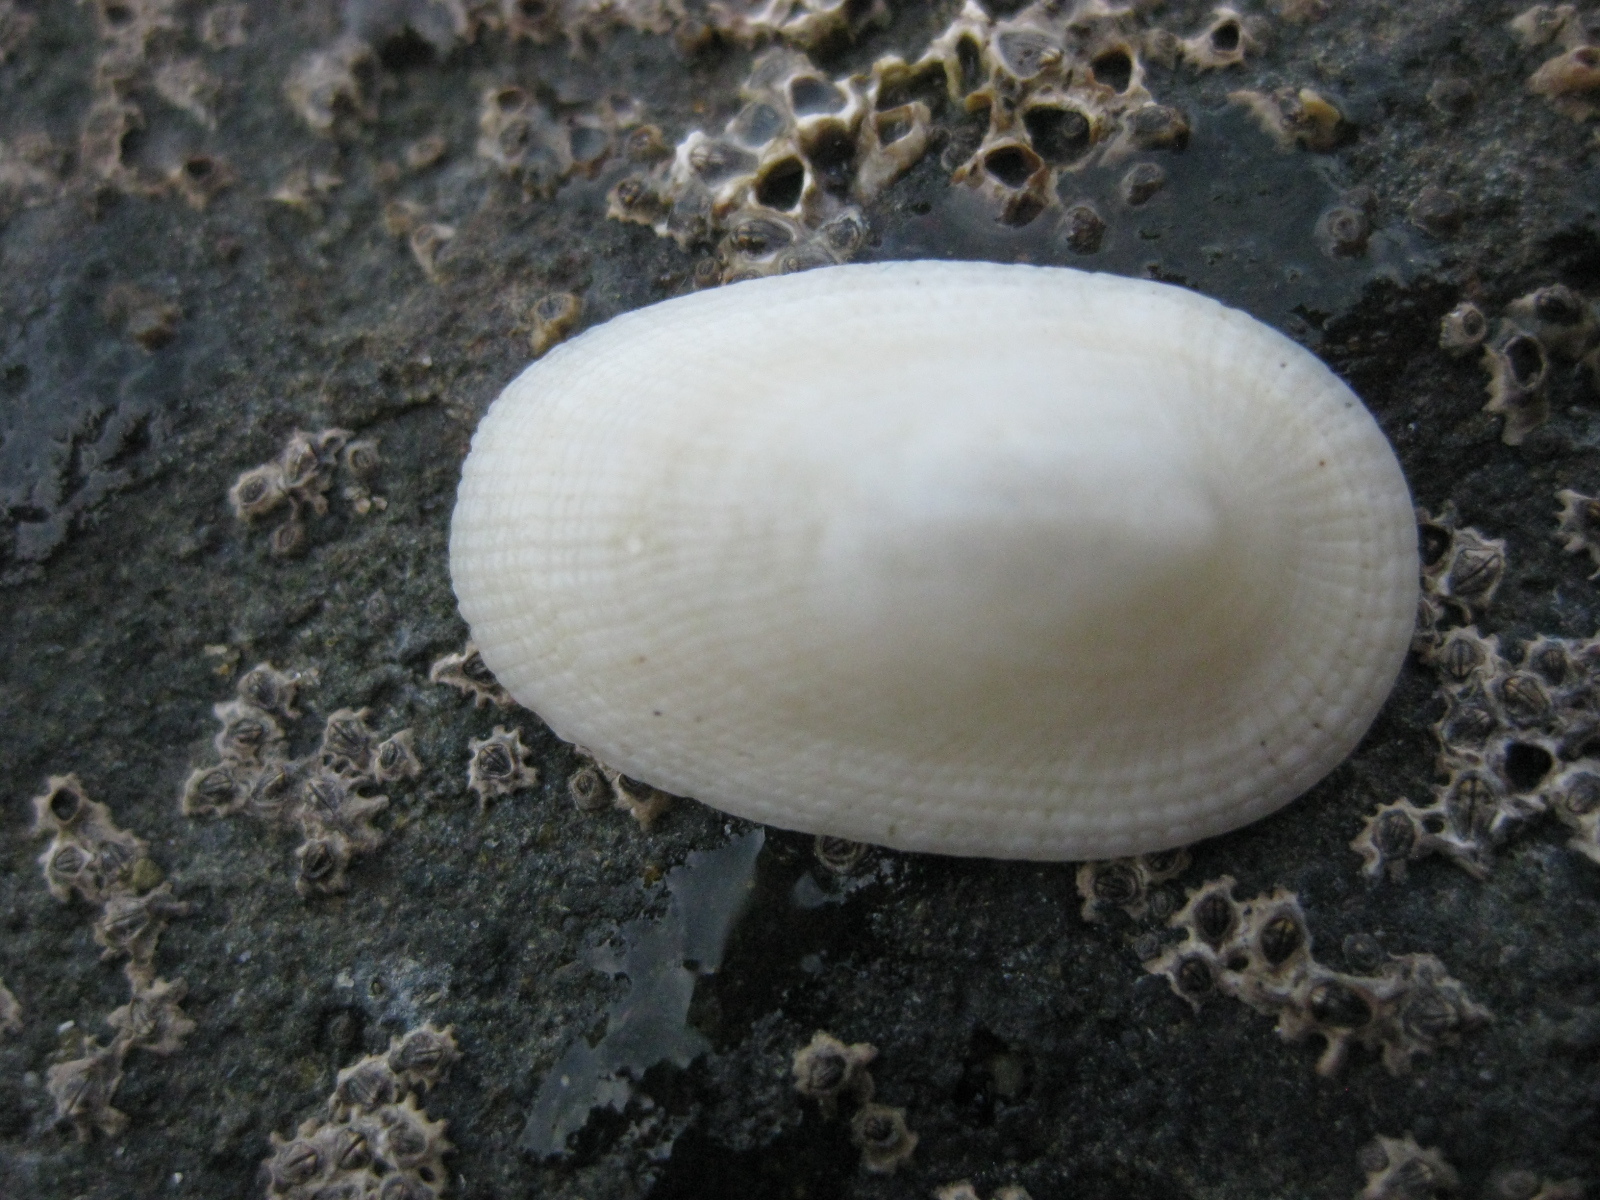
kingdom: Animalia
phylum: Mollusca
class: Gastropoda
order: Lepetellida
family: Fissurellidae
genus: Tugali
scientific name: Tugali elegans
